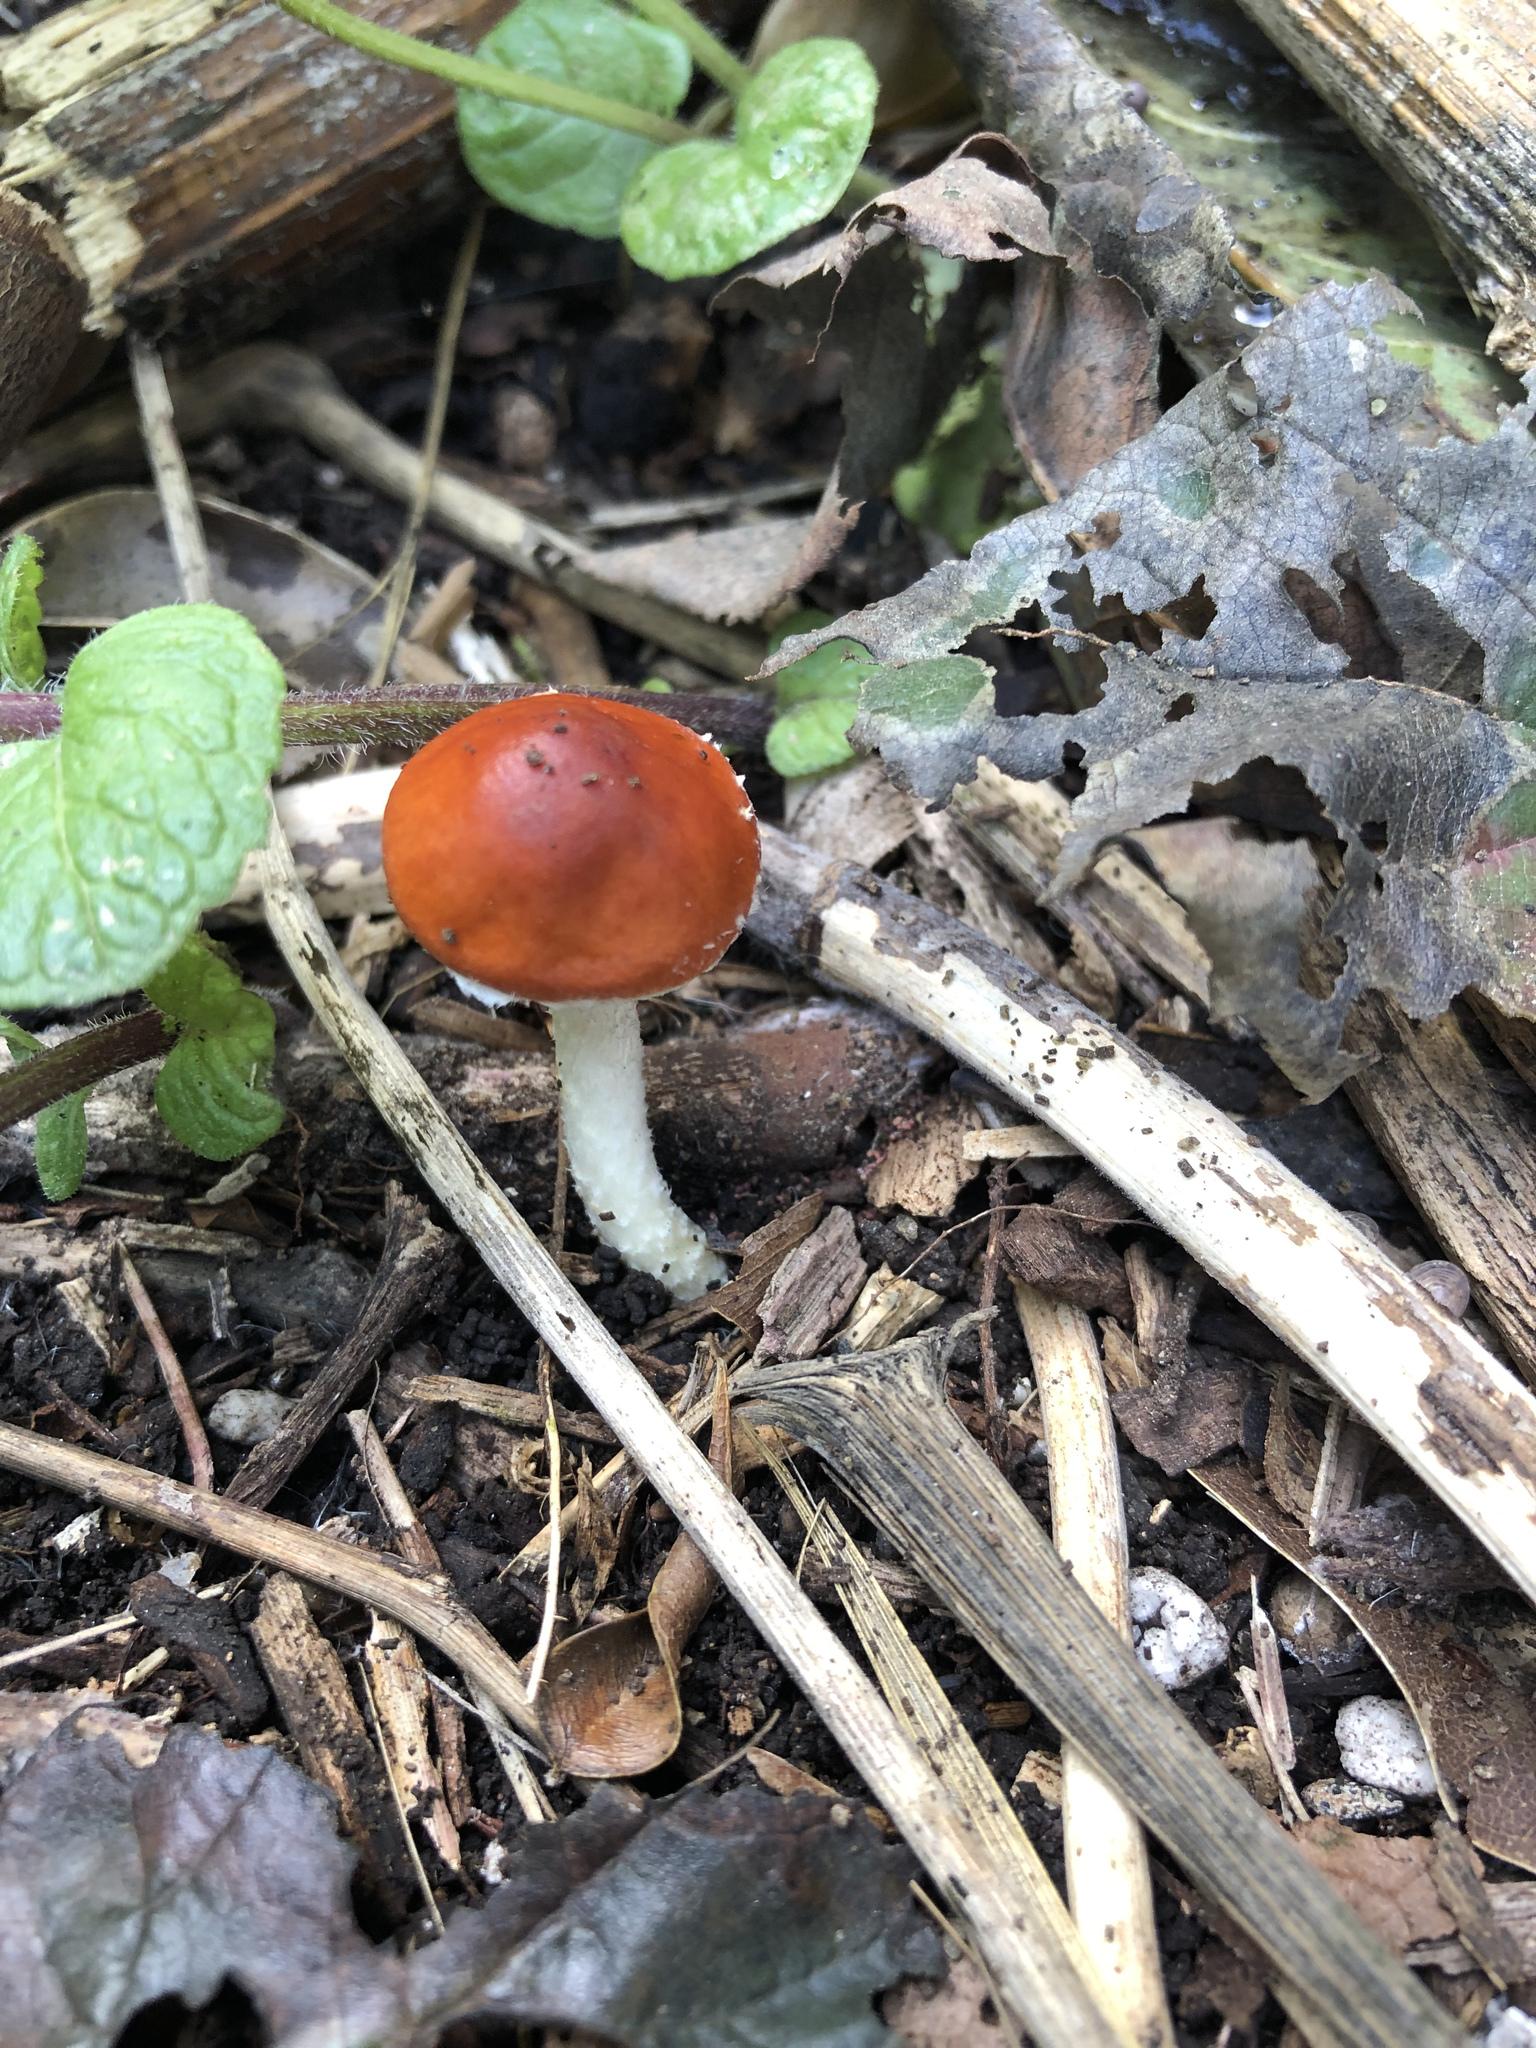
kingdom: Fungi
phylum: Basidiomycota
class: Agaricomycetes
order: Agaricales
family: Strophariaceae
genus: Leratiomyces
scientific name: Leratiomyces ceres
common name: Redlead roundhead
